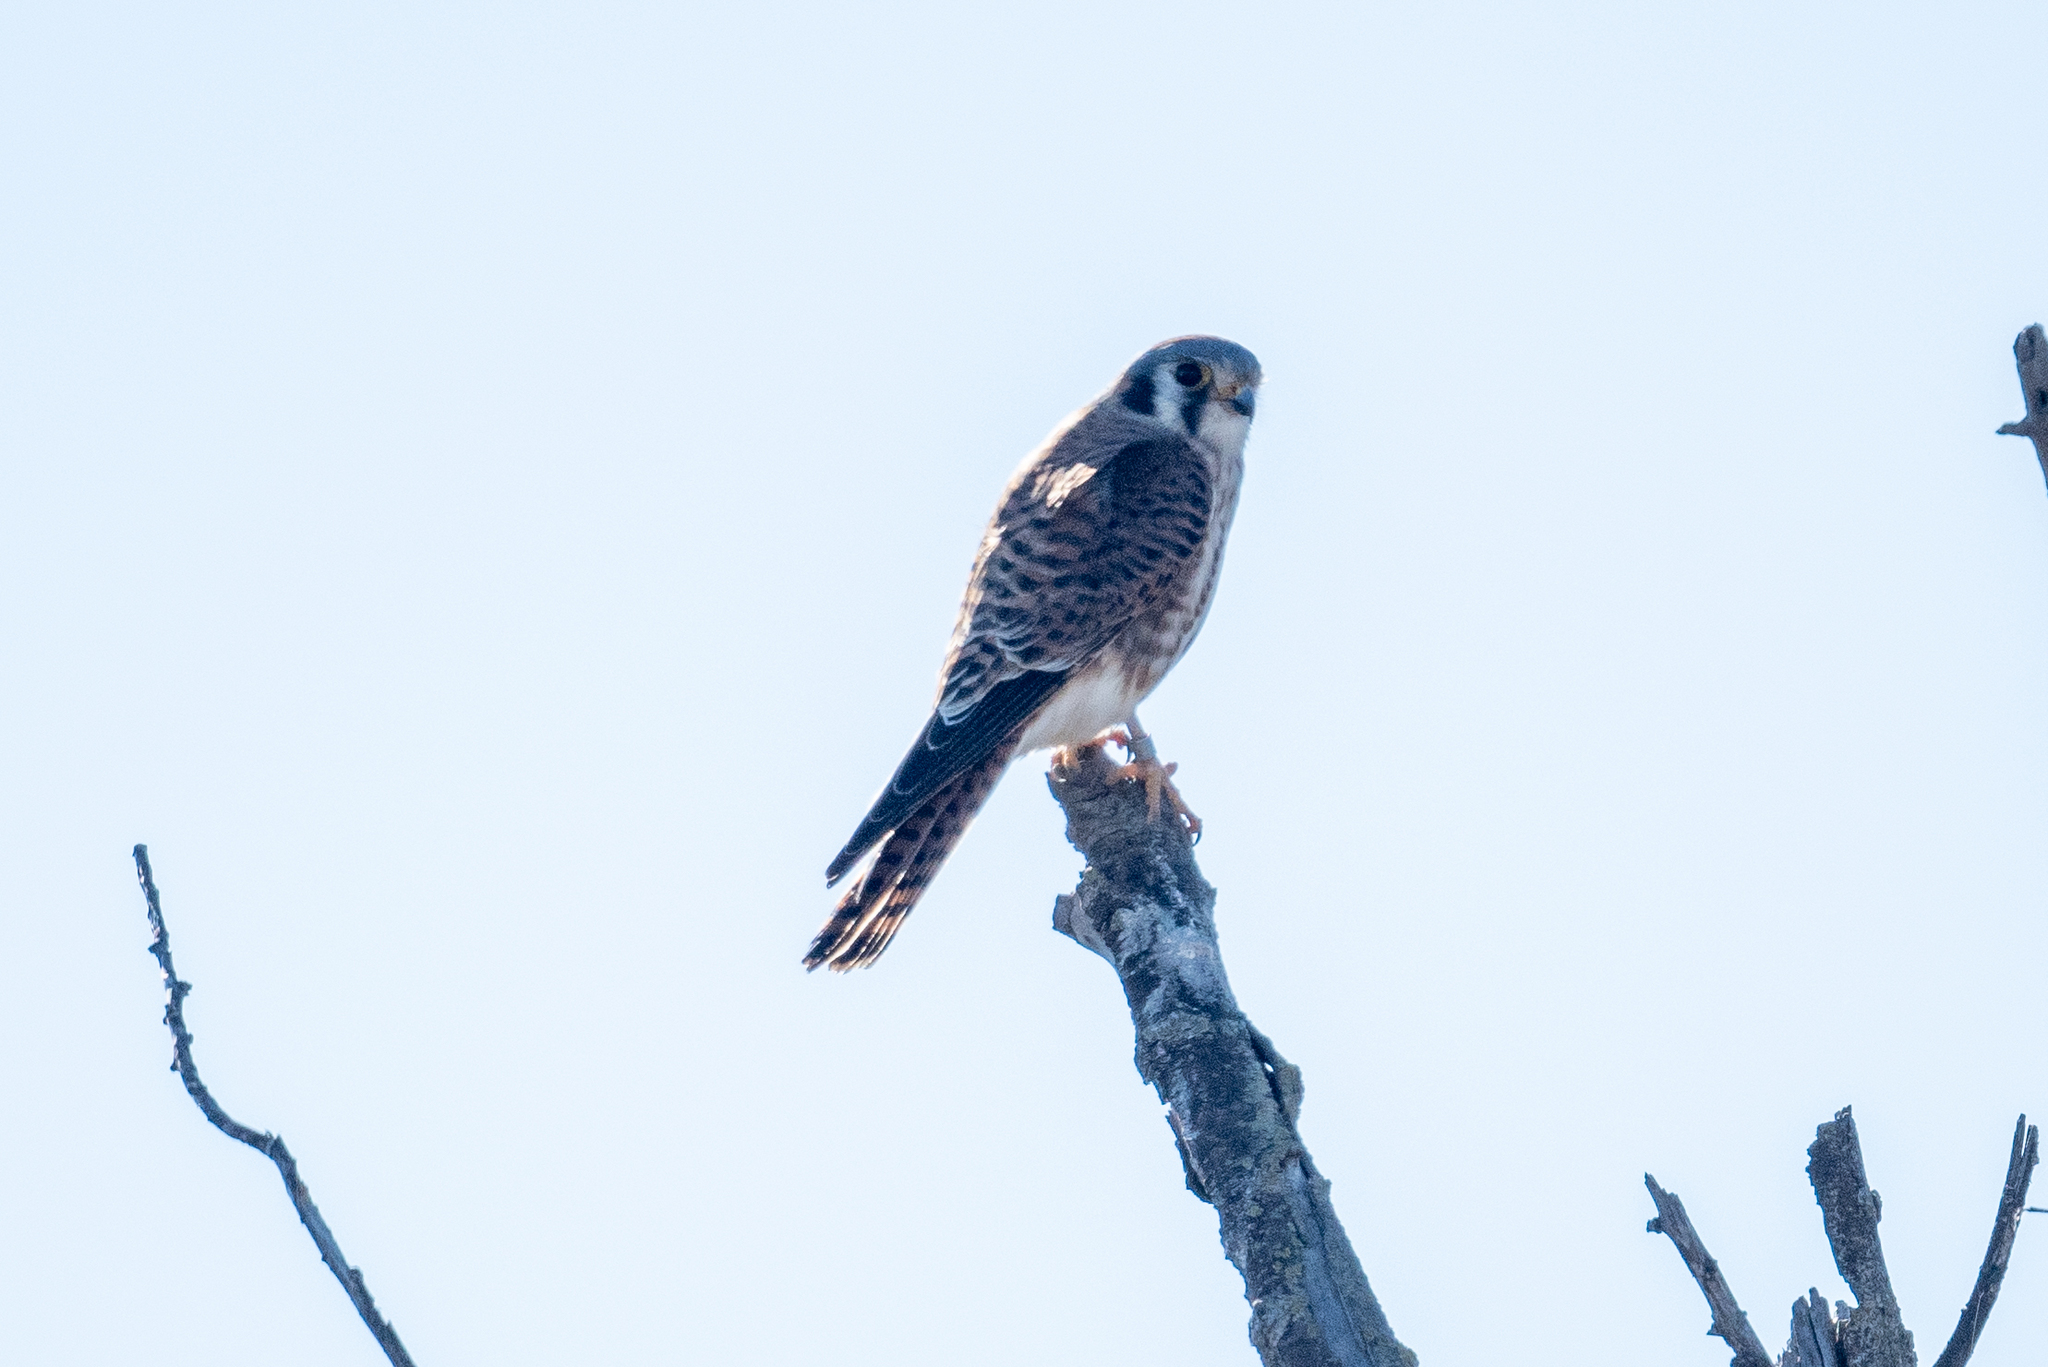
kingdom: Animalia
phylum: Chordata
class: Aves
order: Falconiformes
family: Falconidae
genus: Falco
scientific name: Falco sparverius
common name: American kestrel
